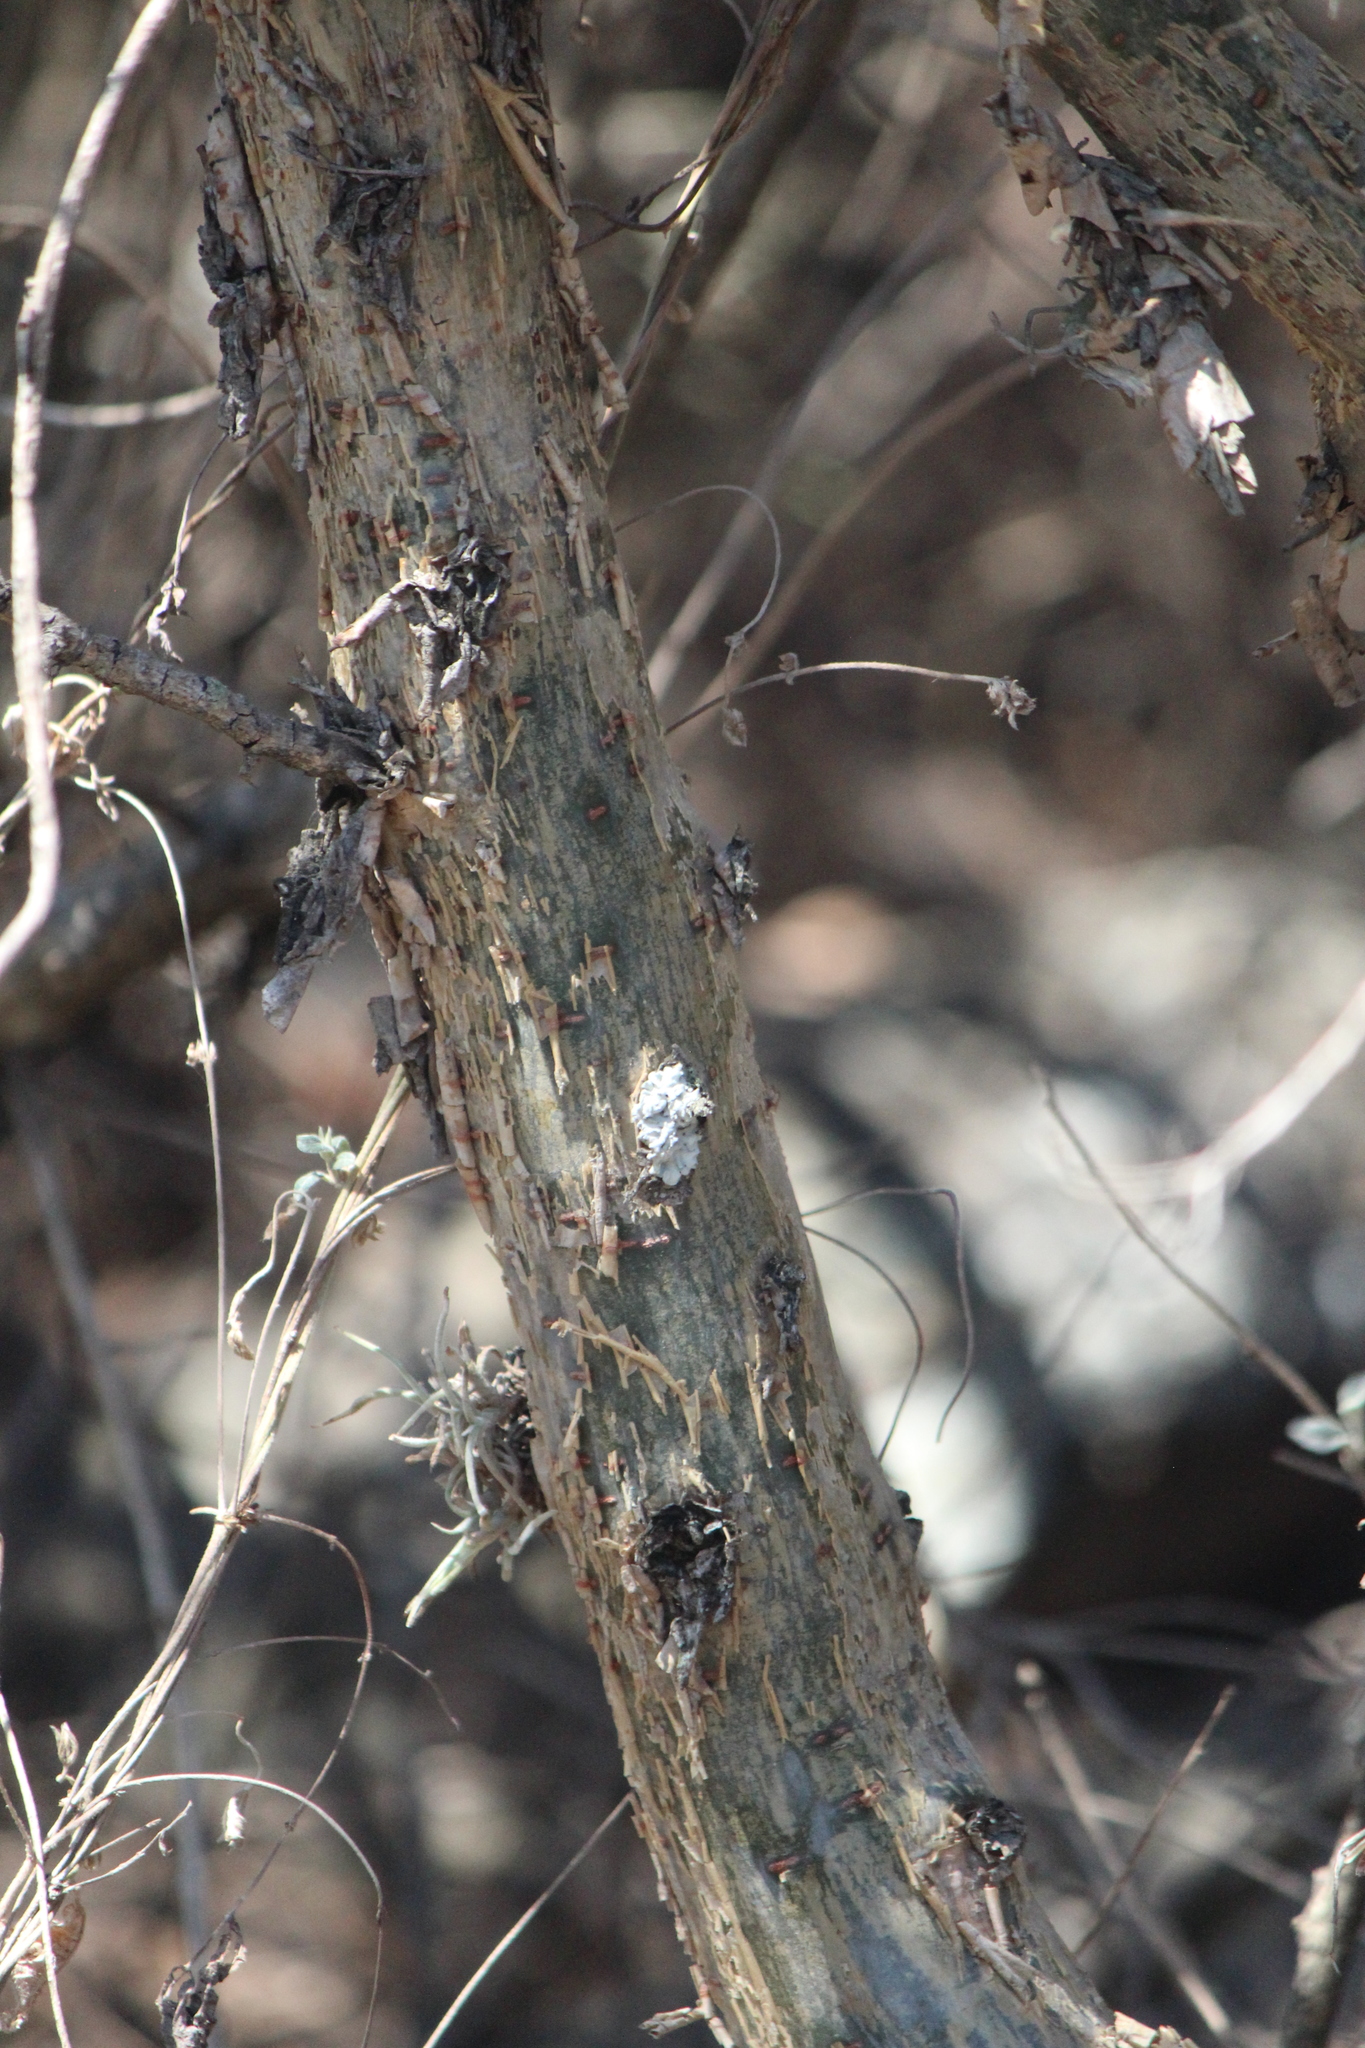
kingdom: Plantae
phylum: Tracheophyta
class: Magnoliopsida
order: Sapindales
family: Burseraceae
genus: Bursera
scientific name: Bursera fagaroides
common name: Elephant tree
